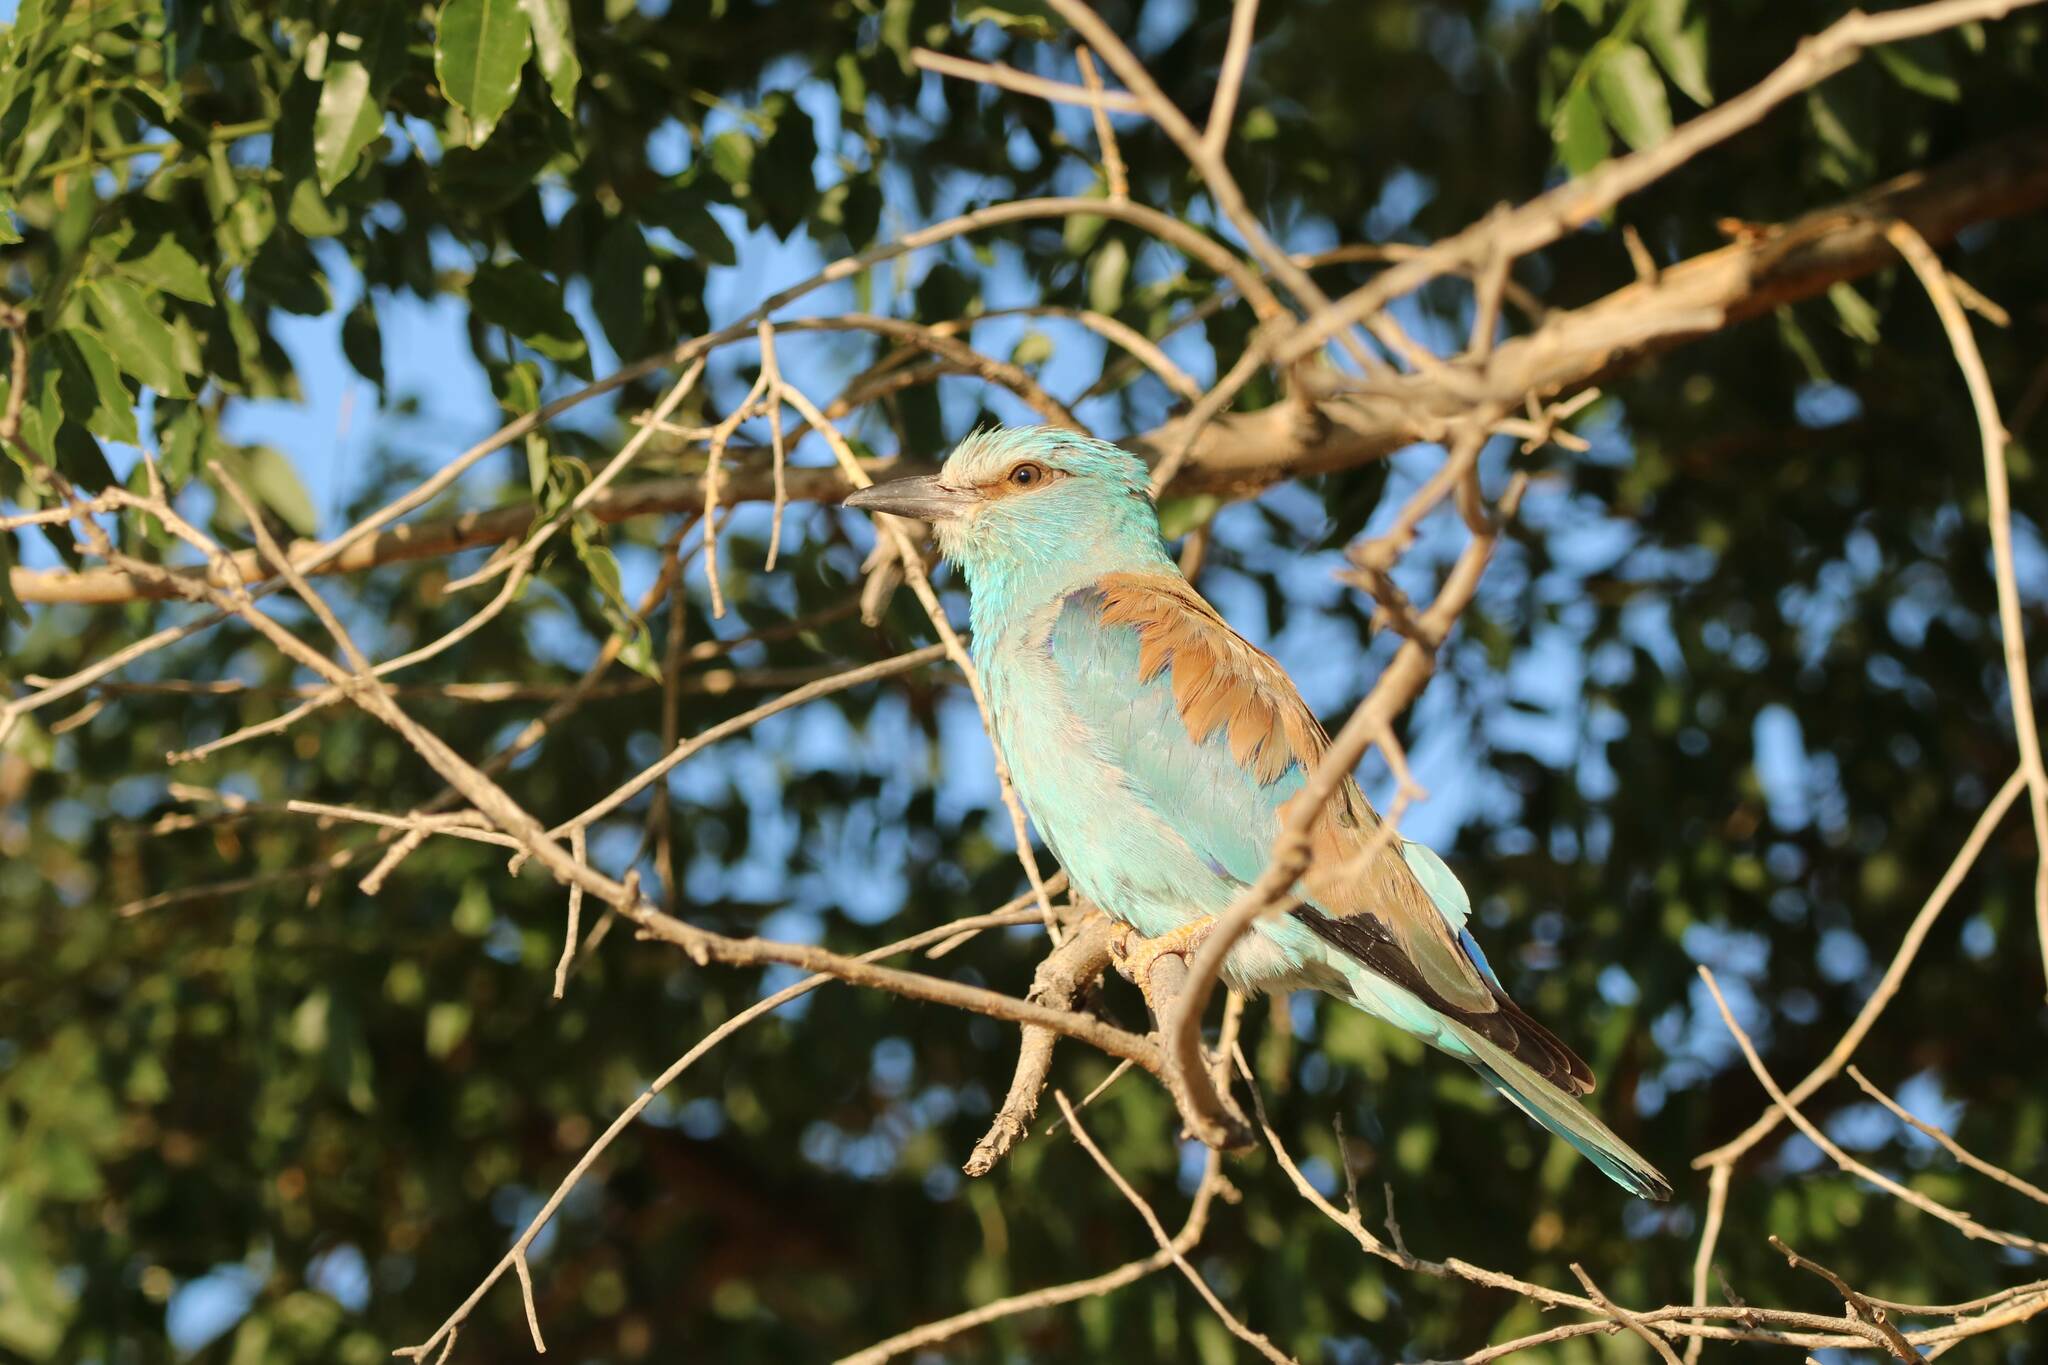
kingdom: Animalia
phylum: Chordata
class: Aves
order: Coraciiformes
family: Coraciidae
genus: Coracias
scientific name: Coracias garrulus
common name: European roller
